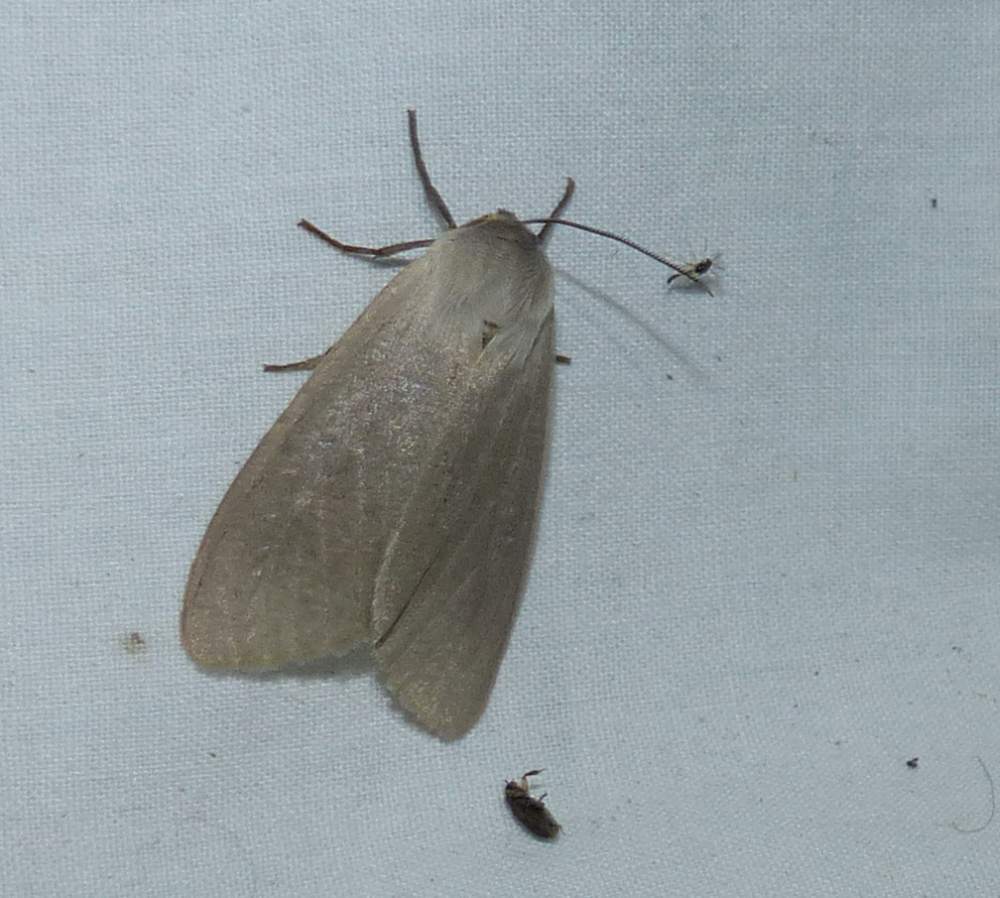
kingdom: Animalia
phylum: Arthropoda
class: Insecta
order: Lepidoptera
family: Erebidae
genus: Euchaetes
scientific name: Euchaetes egle
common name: Milkweed tussock moth
